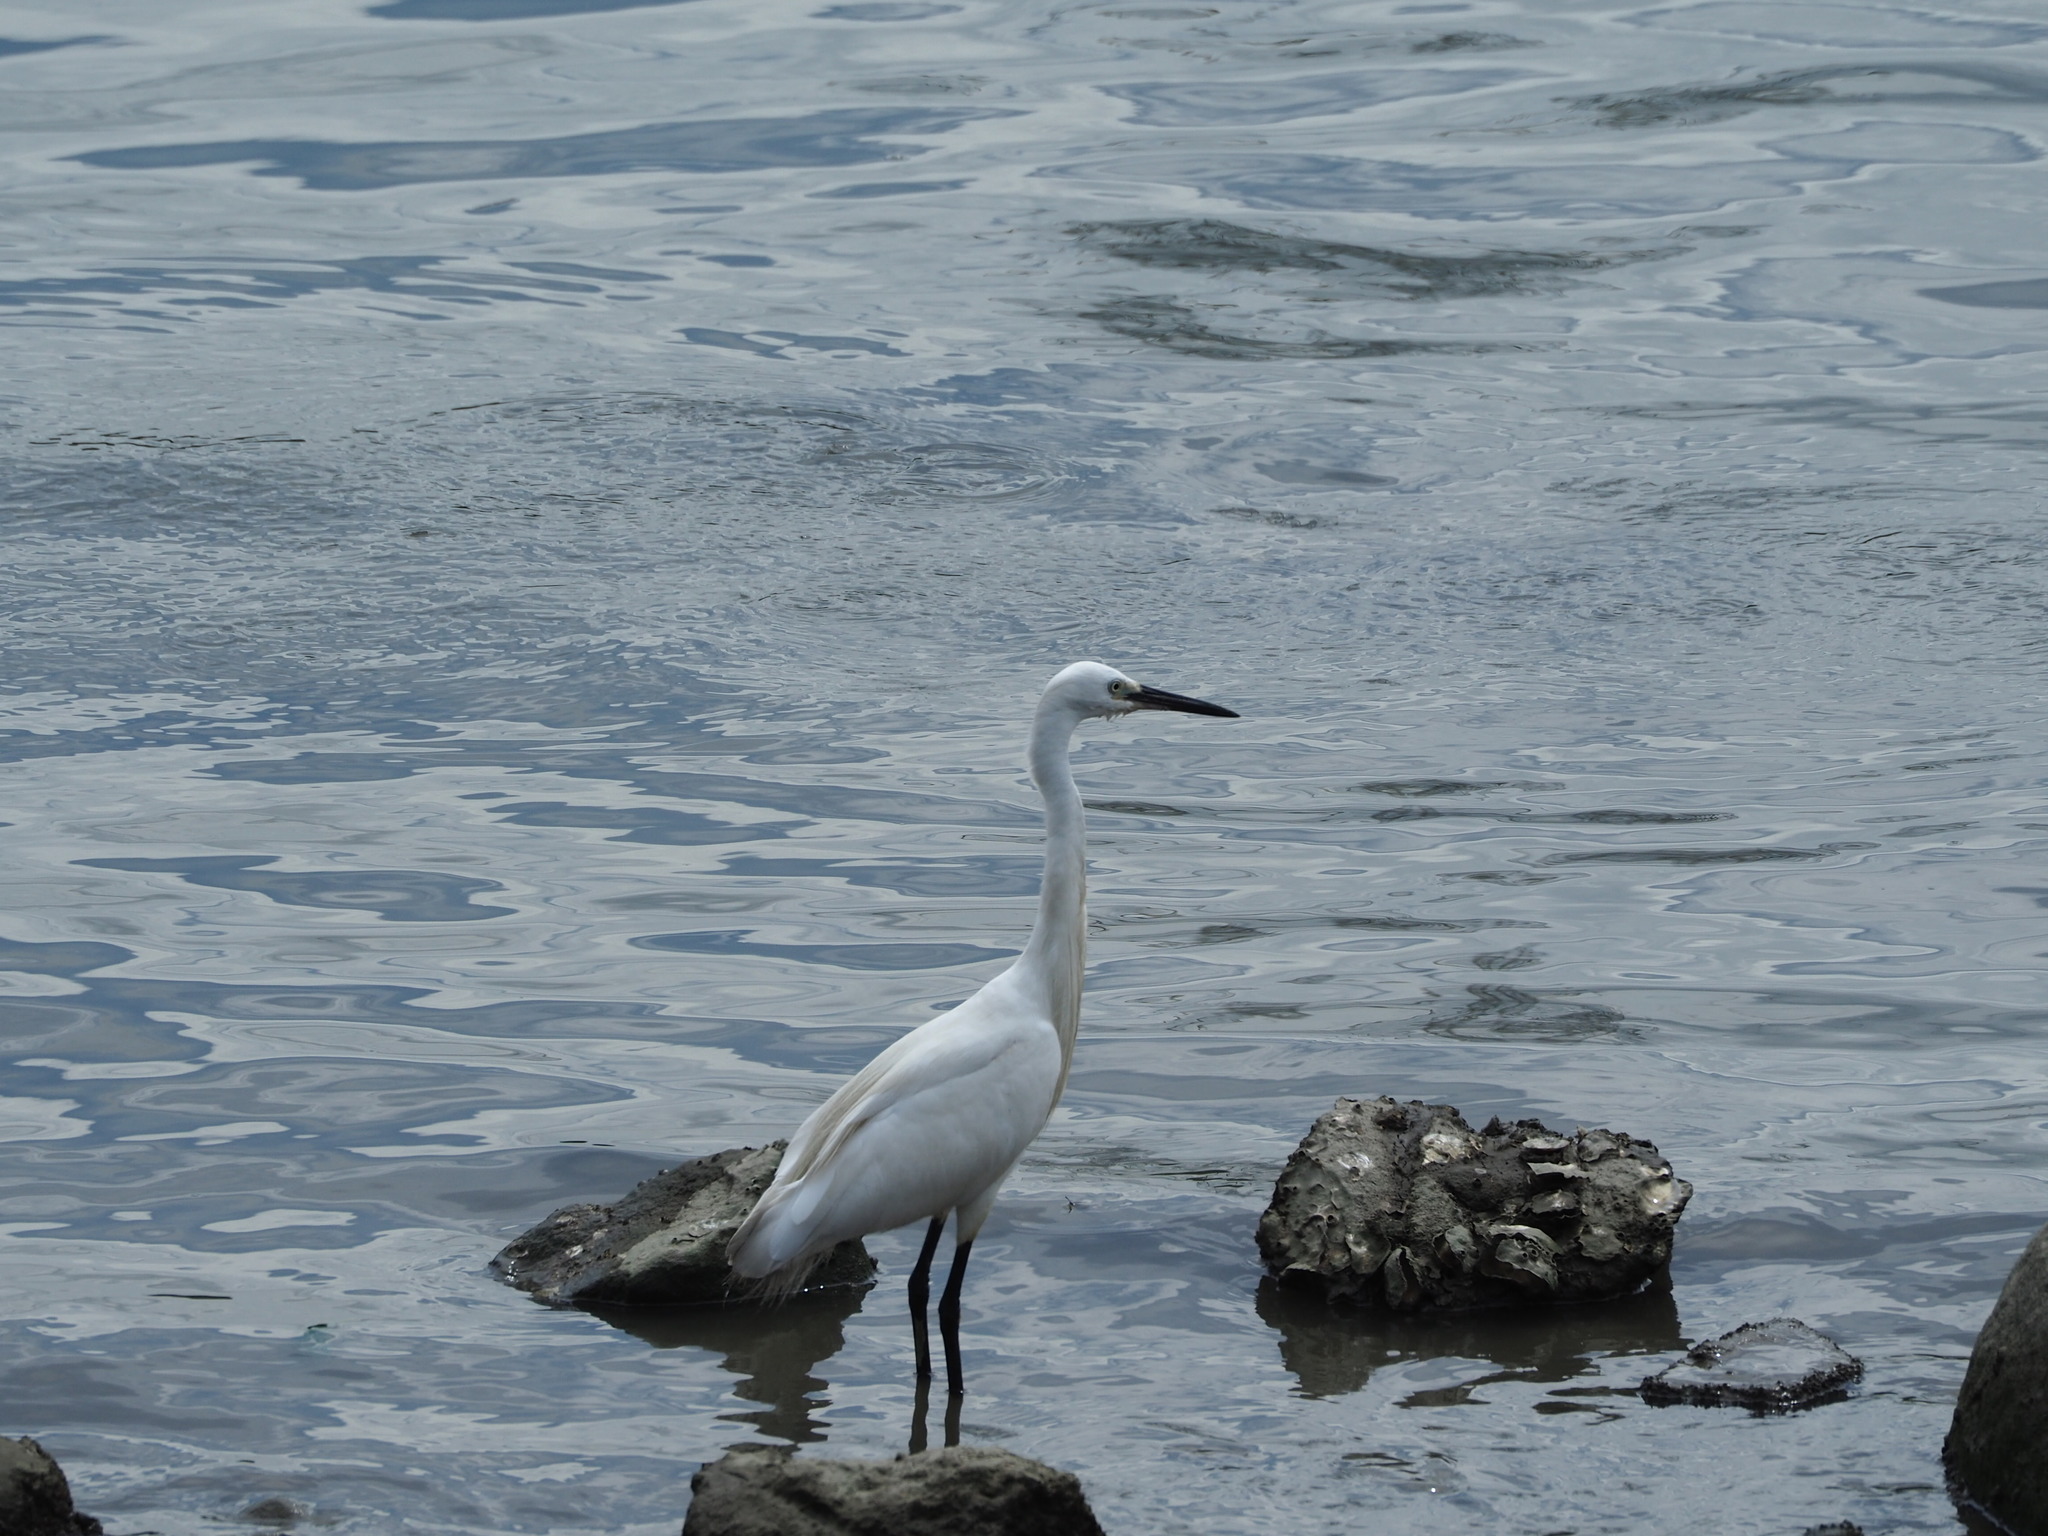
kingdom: Animalia
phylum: Chordata
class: Aves
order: Pelecaniformes
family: Ardeidae
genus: Egretta
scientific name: Egretta garzetta
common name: Little egret
